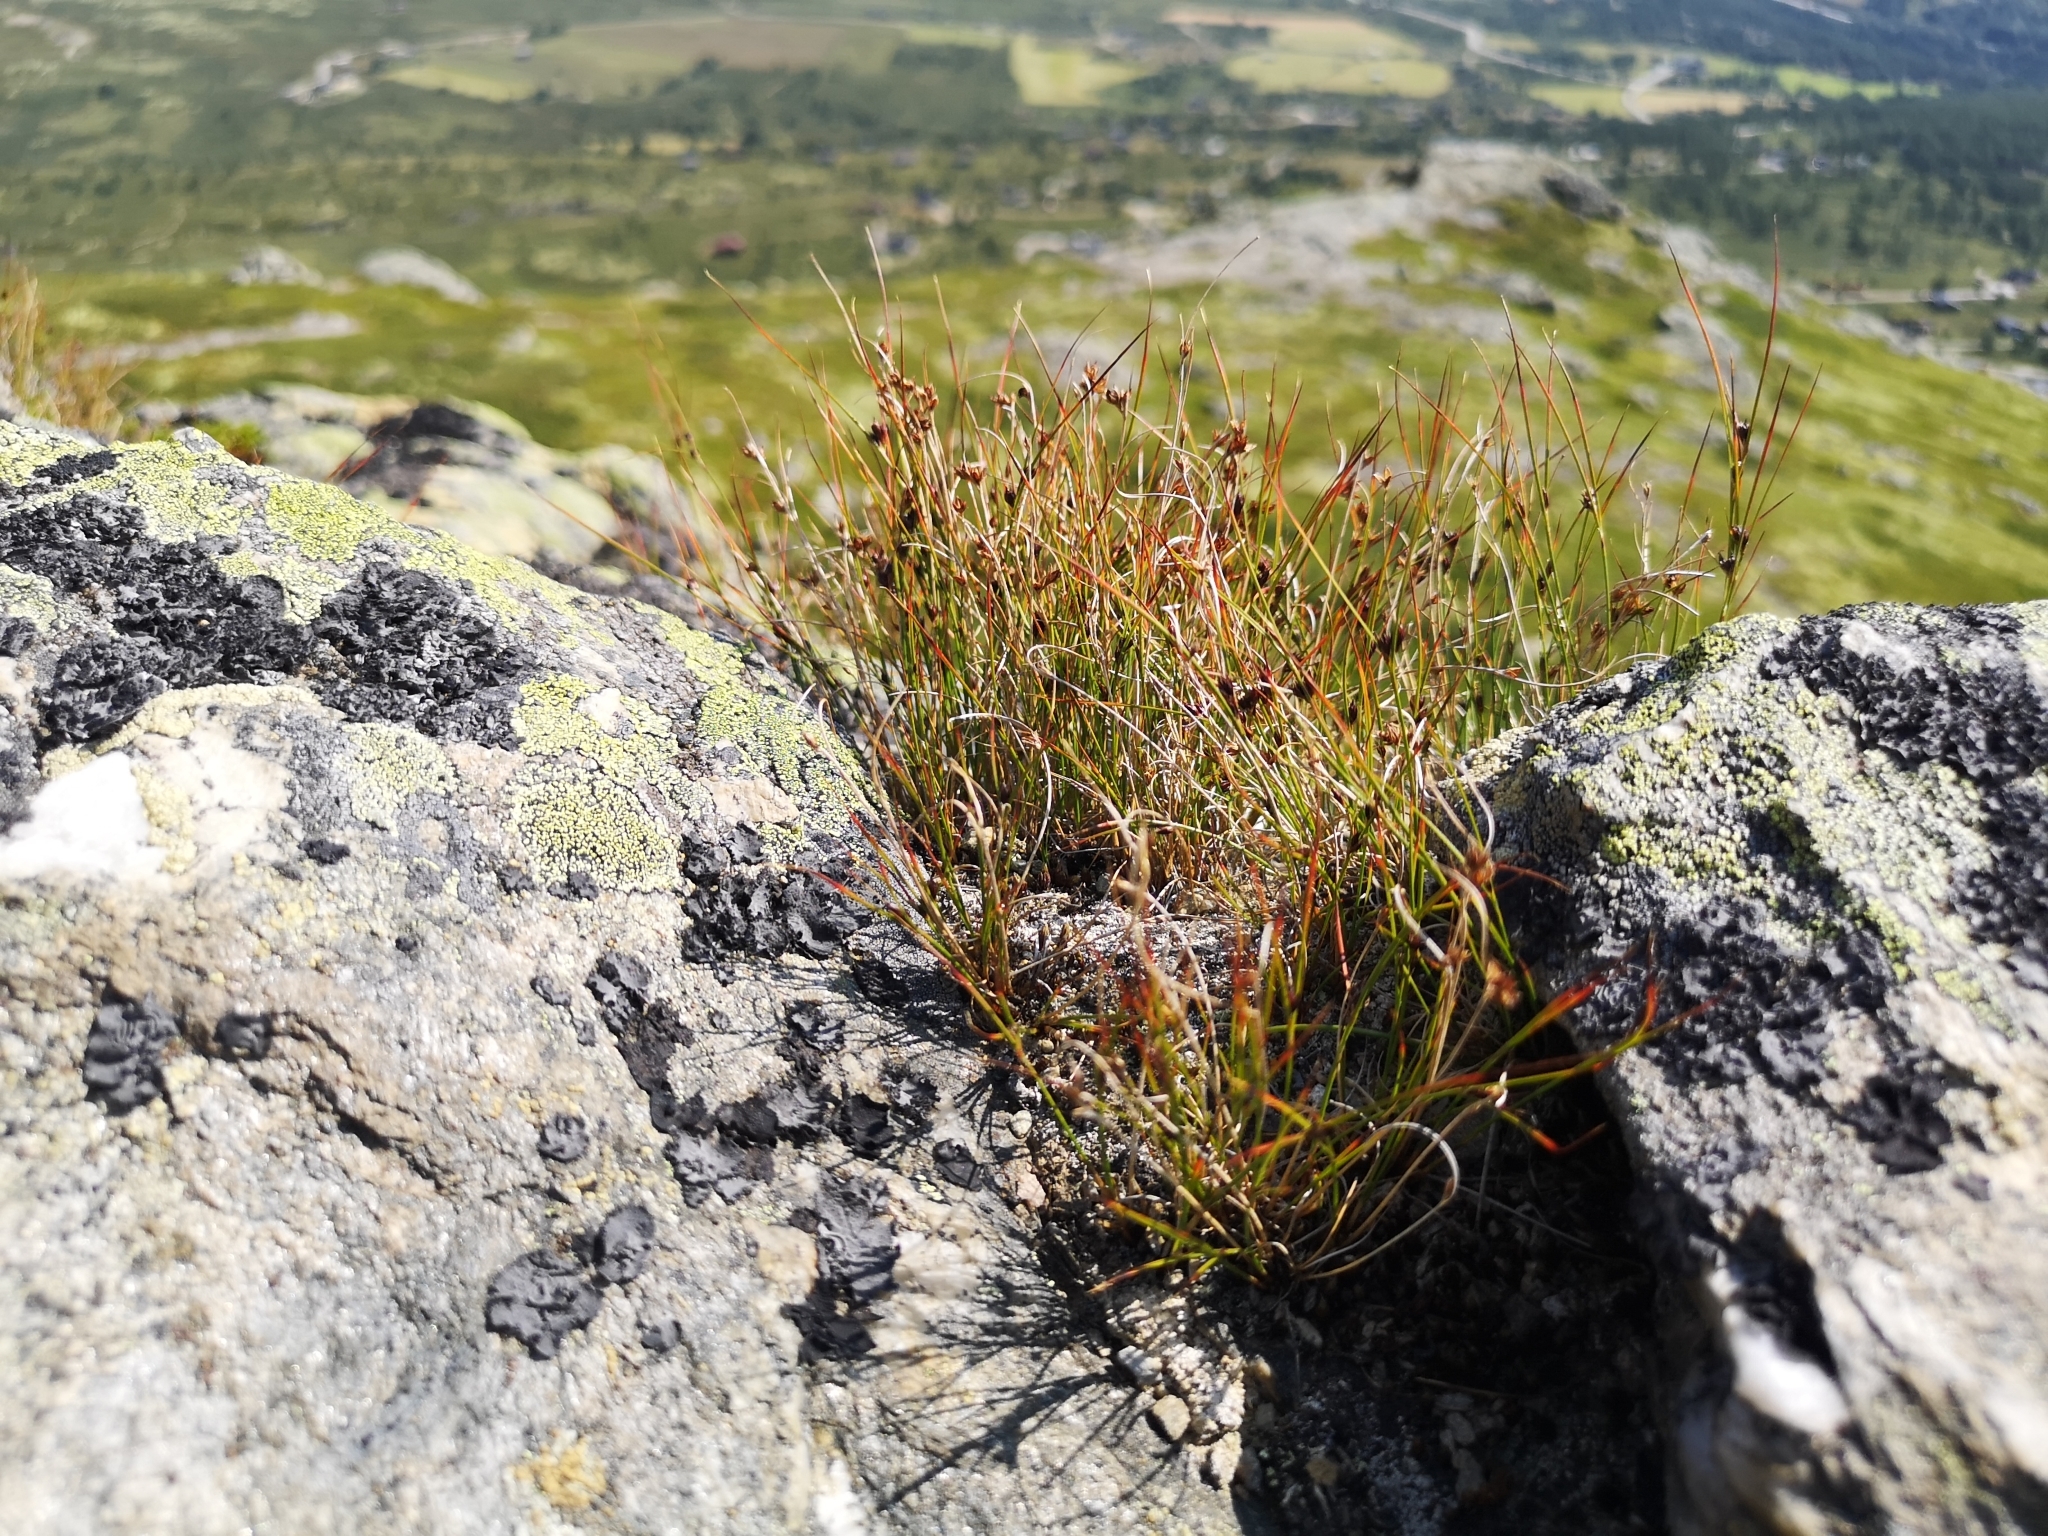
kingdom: Plantae
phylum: Tracheophyta
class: Liliopsida
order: Poales
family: Juncaceae
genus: Oreojuncus
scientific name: Oreojuncus trifidus
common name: Highland rush
